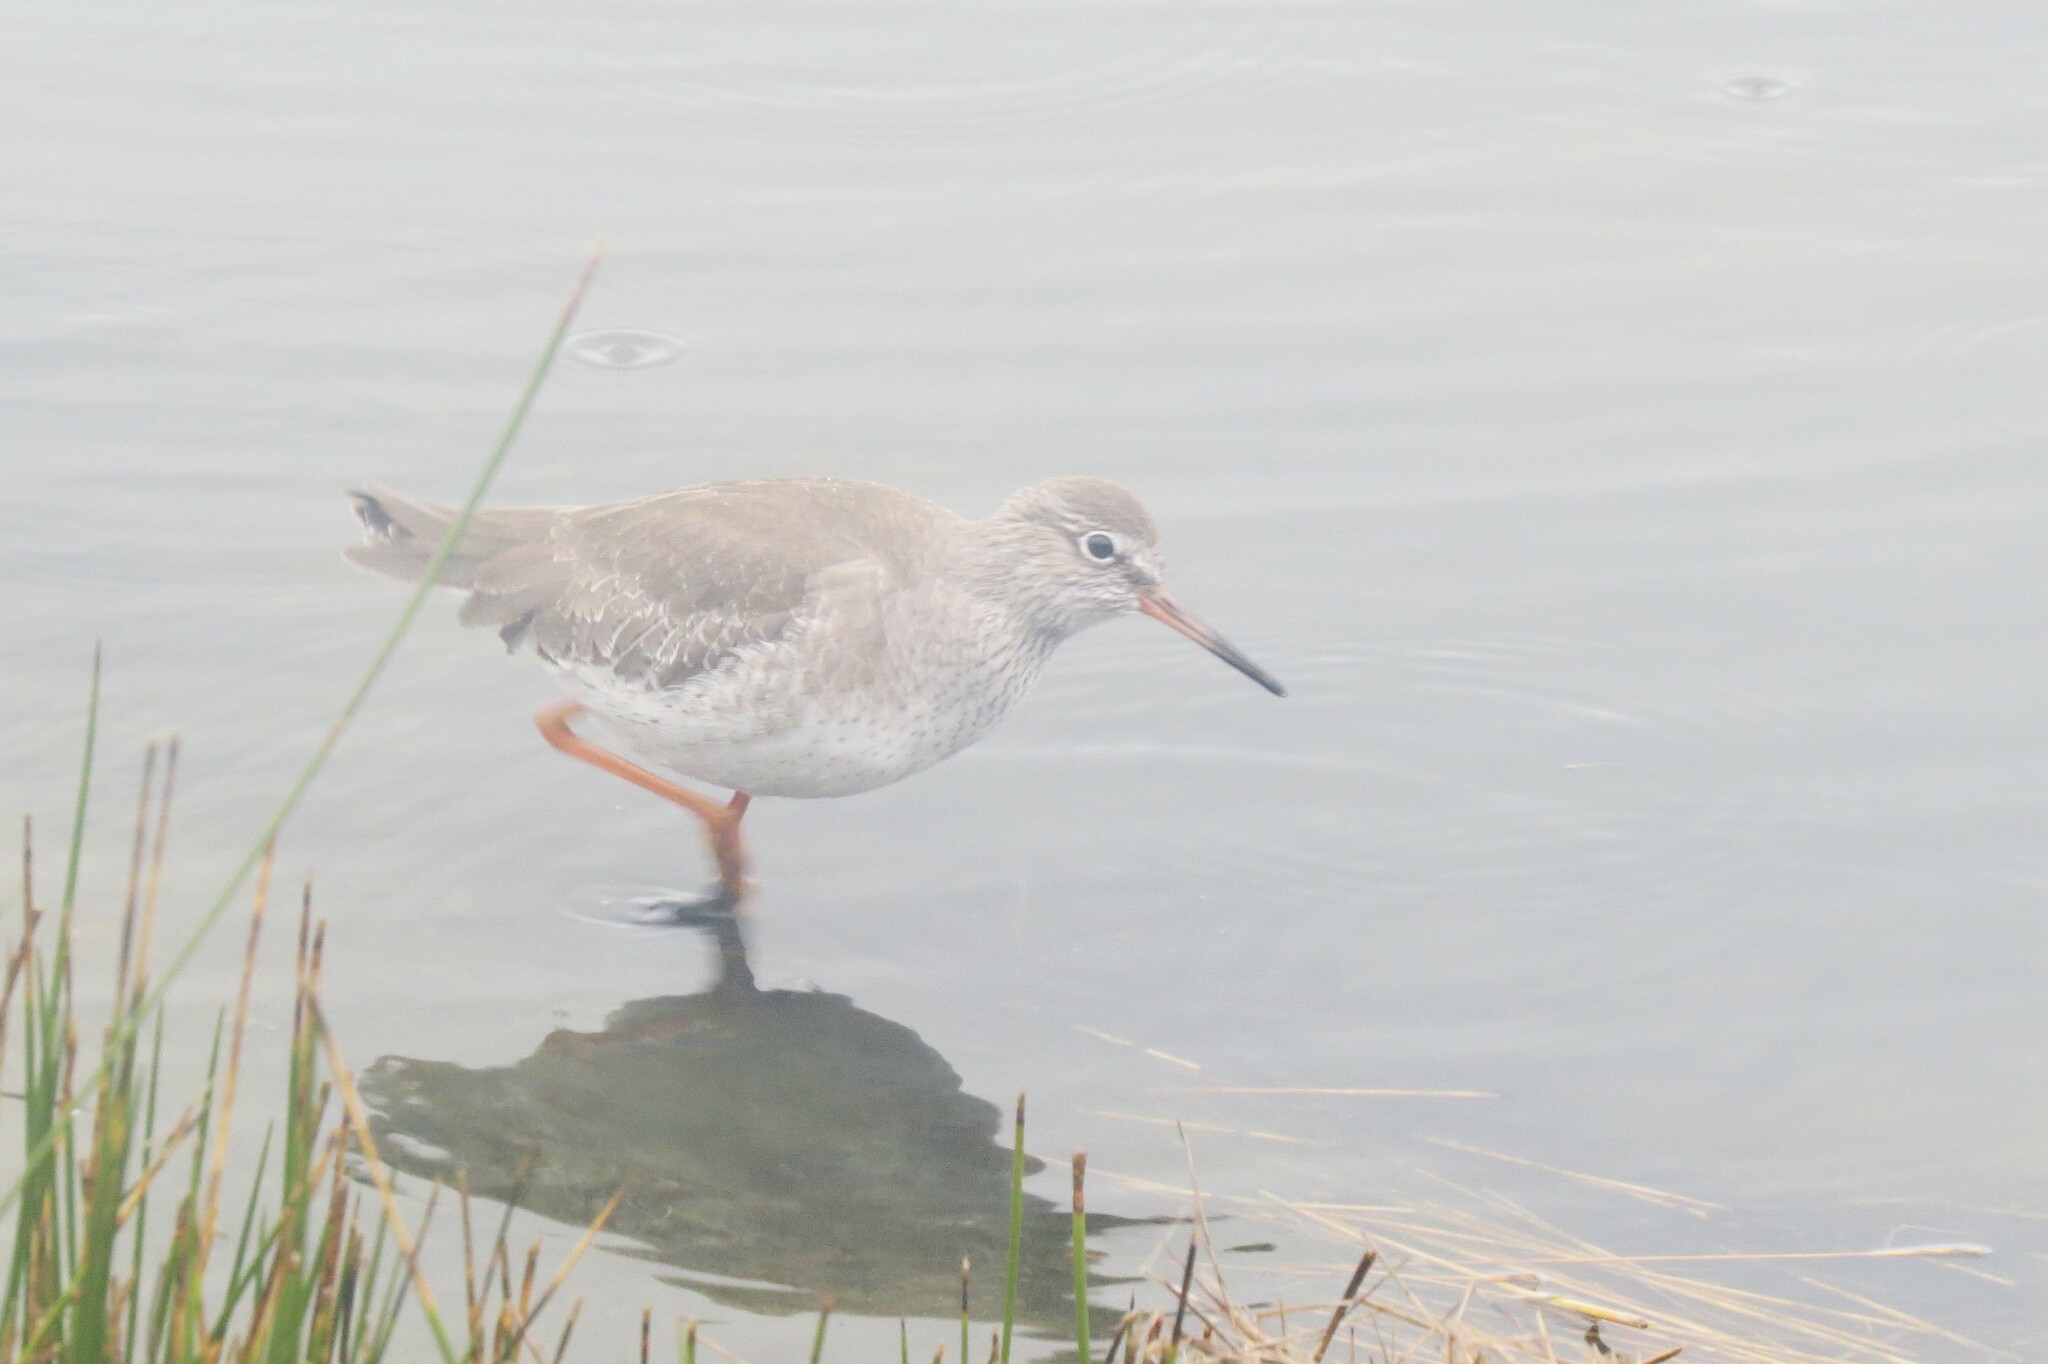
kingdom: Animalia
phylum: Chordata
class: Aves
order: Charadriiformes
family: Scolopacidae
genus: Tringa
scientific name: Tringa totanus
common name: Common redshank
